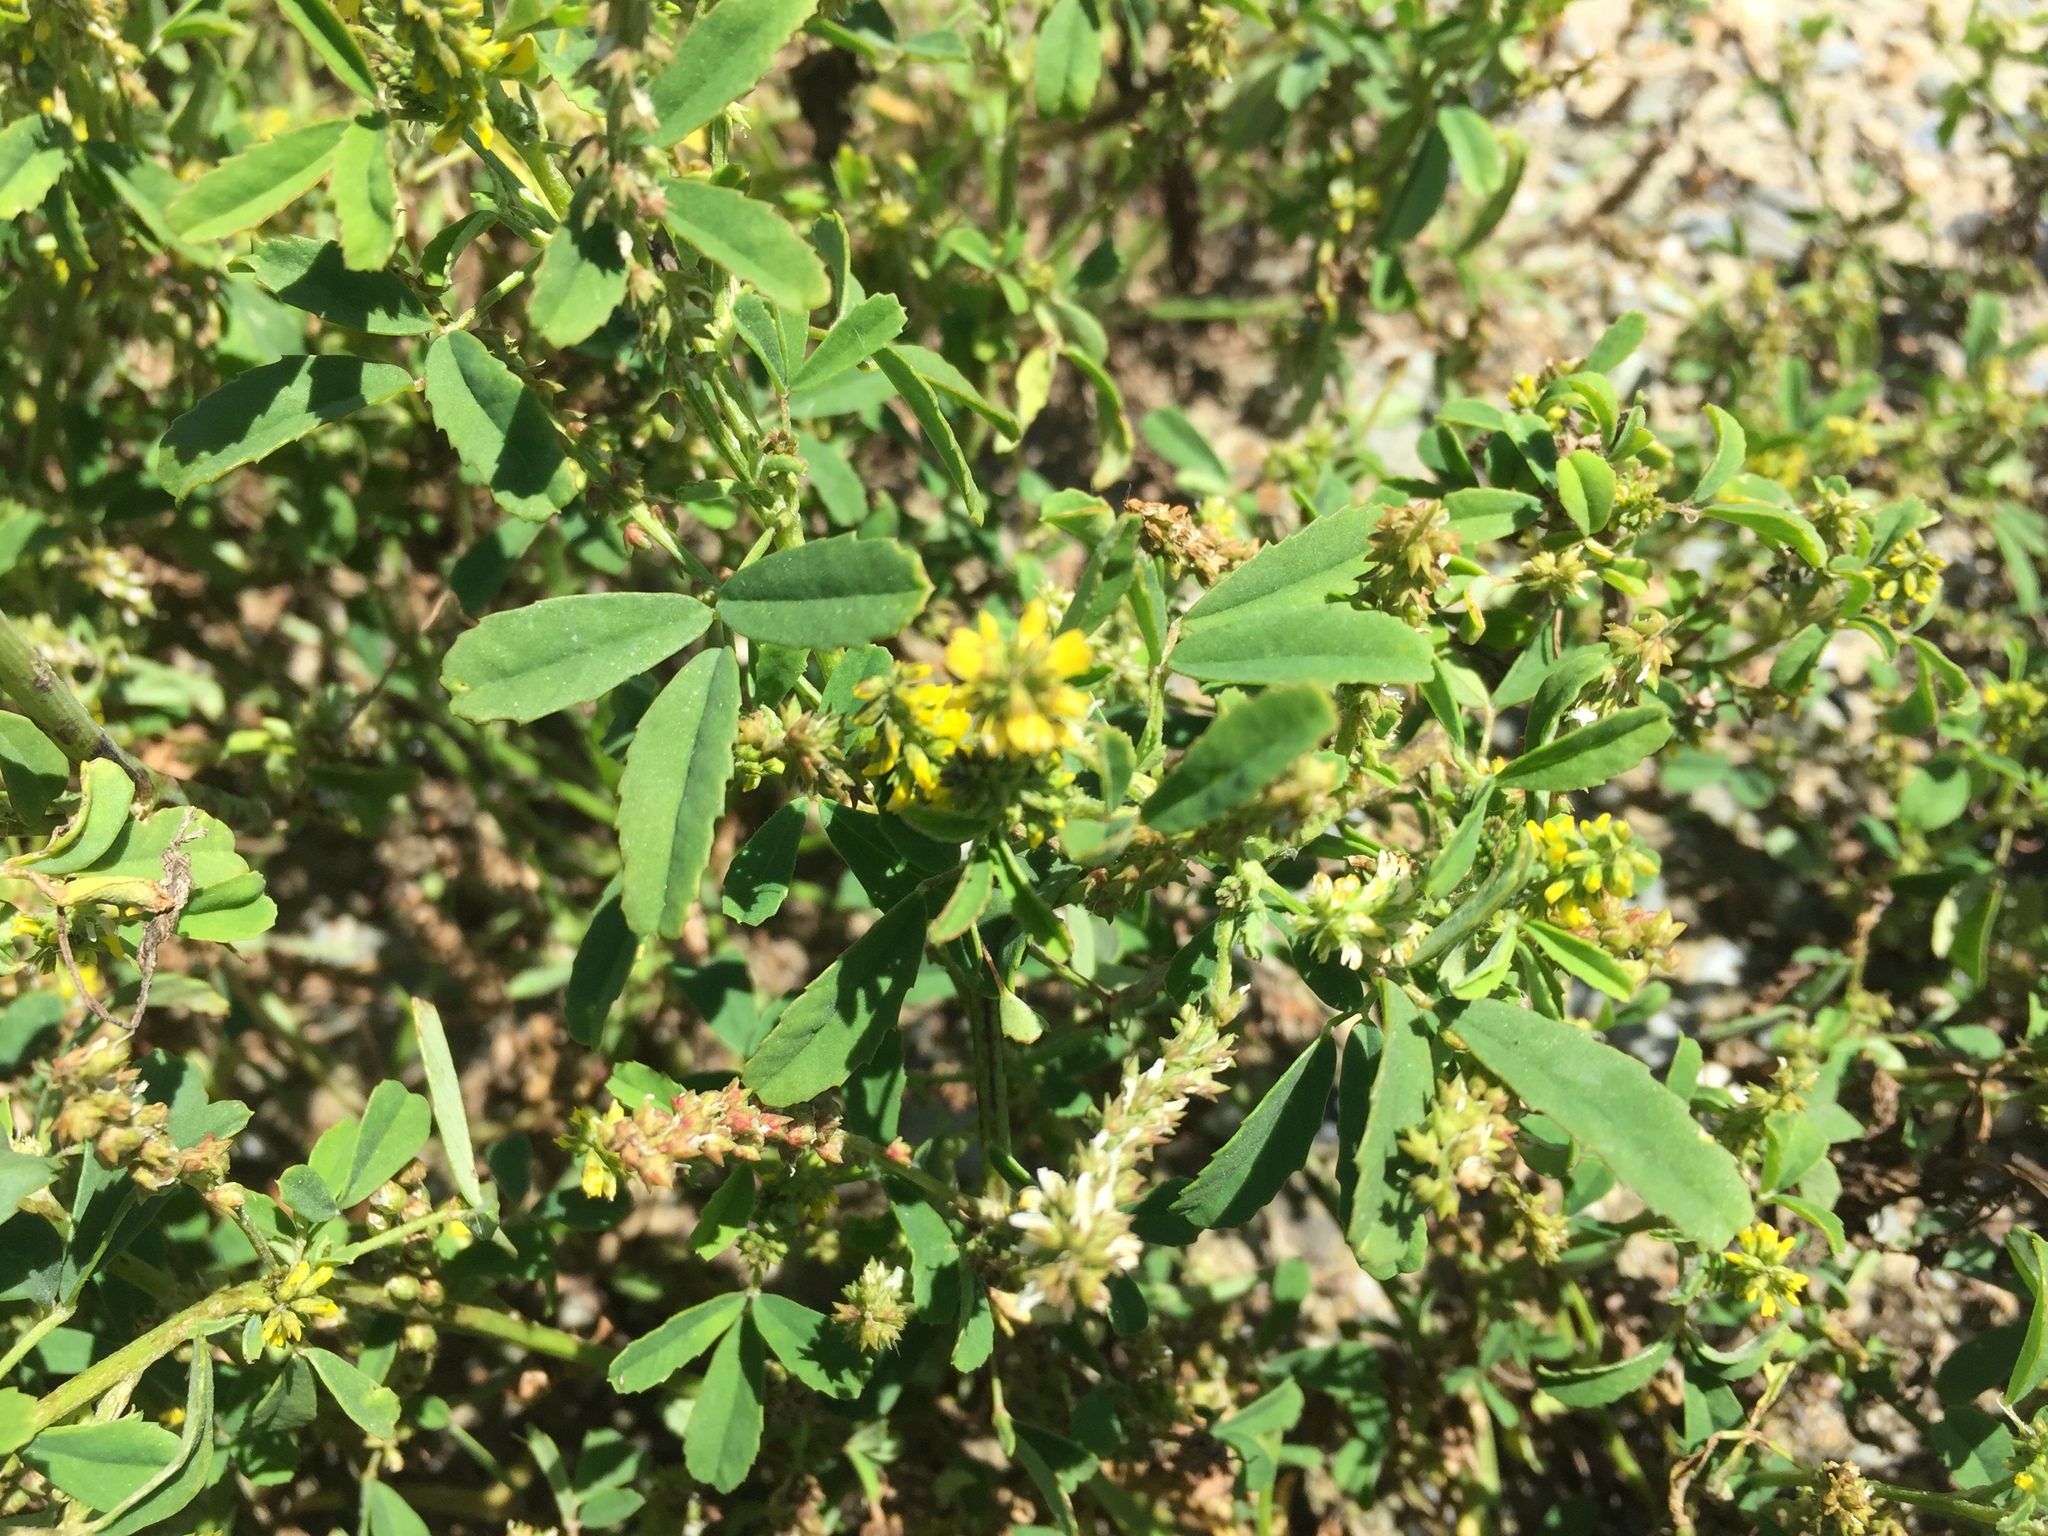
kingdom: Plantae
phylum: Tracheophyta
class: Magnoliopsida
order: Fabales
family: Fabaceae
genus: Melilotus
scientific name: Melilotus indicus
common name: Small melilot
